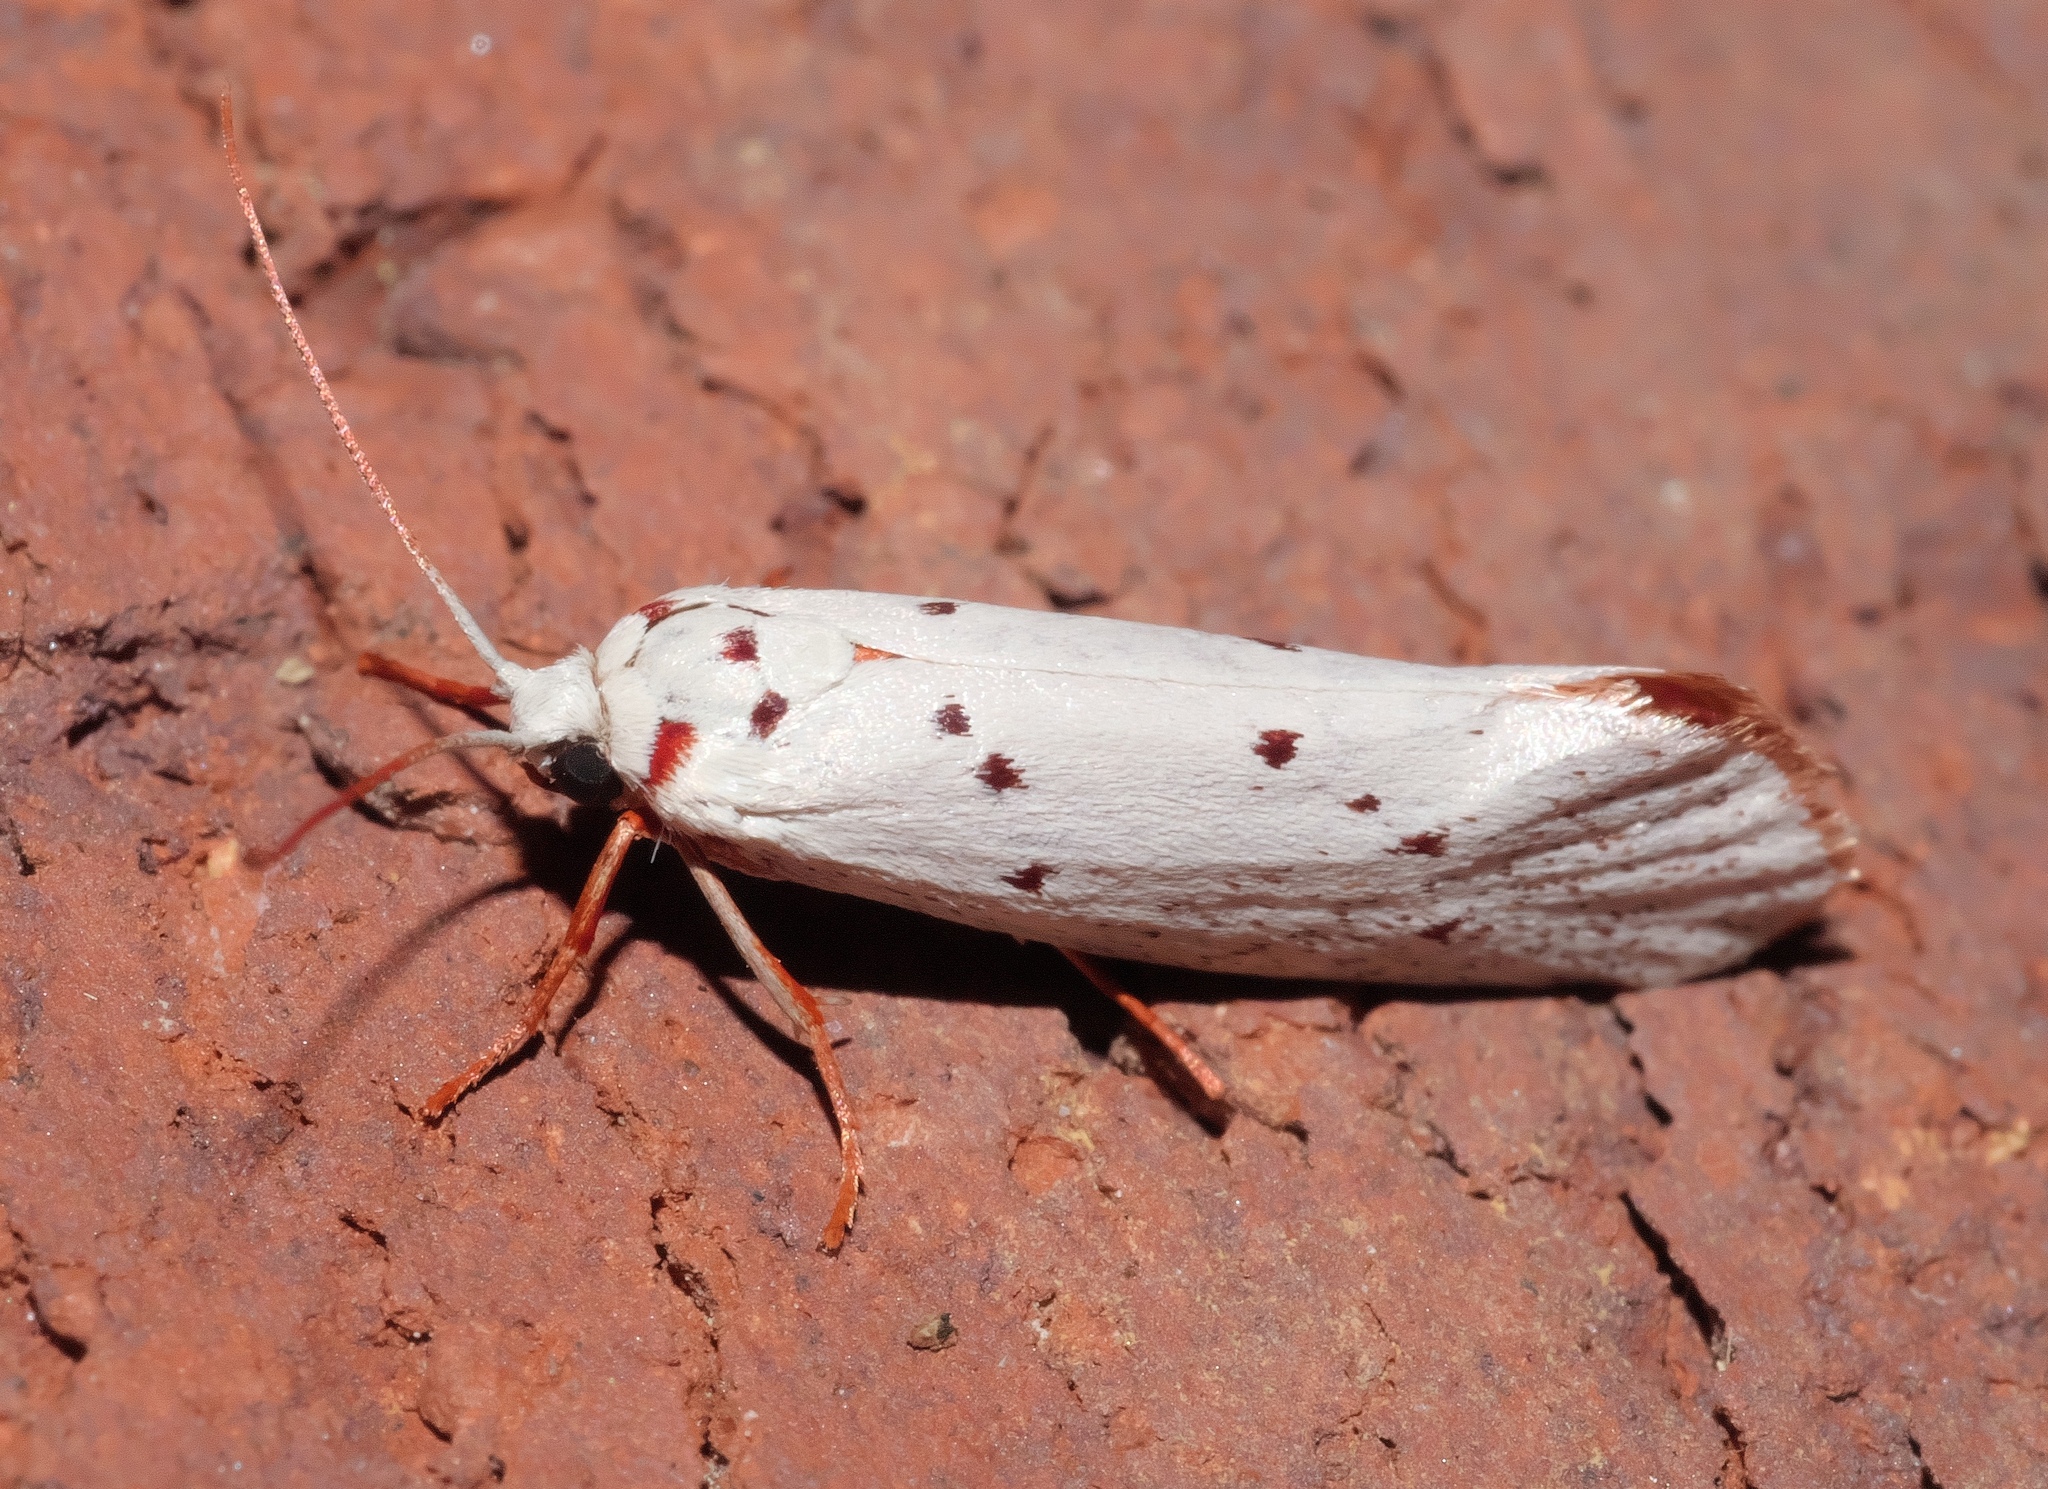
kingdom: Animalia
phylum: Arthropoda
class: Insecta
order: Lepidoptera
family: Lacturidae
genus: Lactura
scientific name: Lactura
